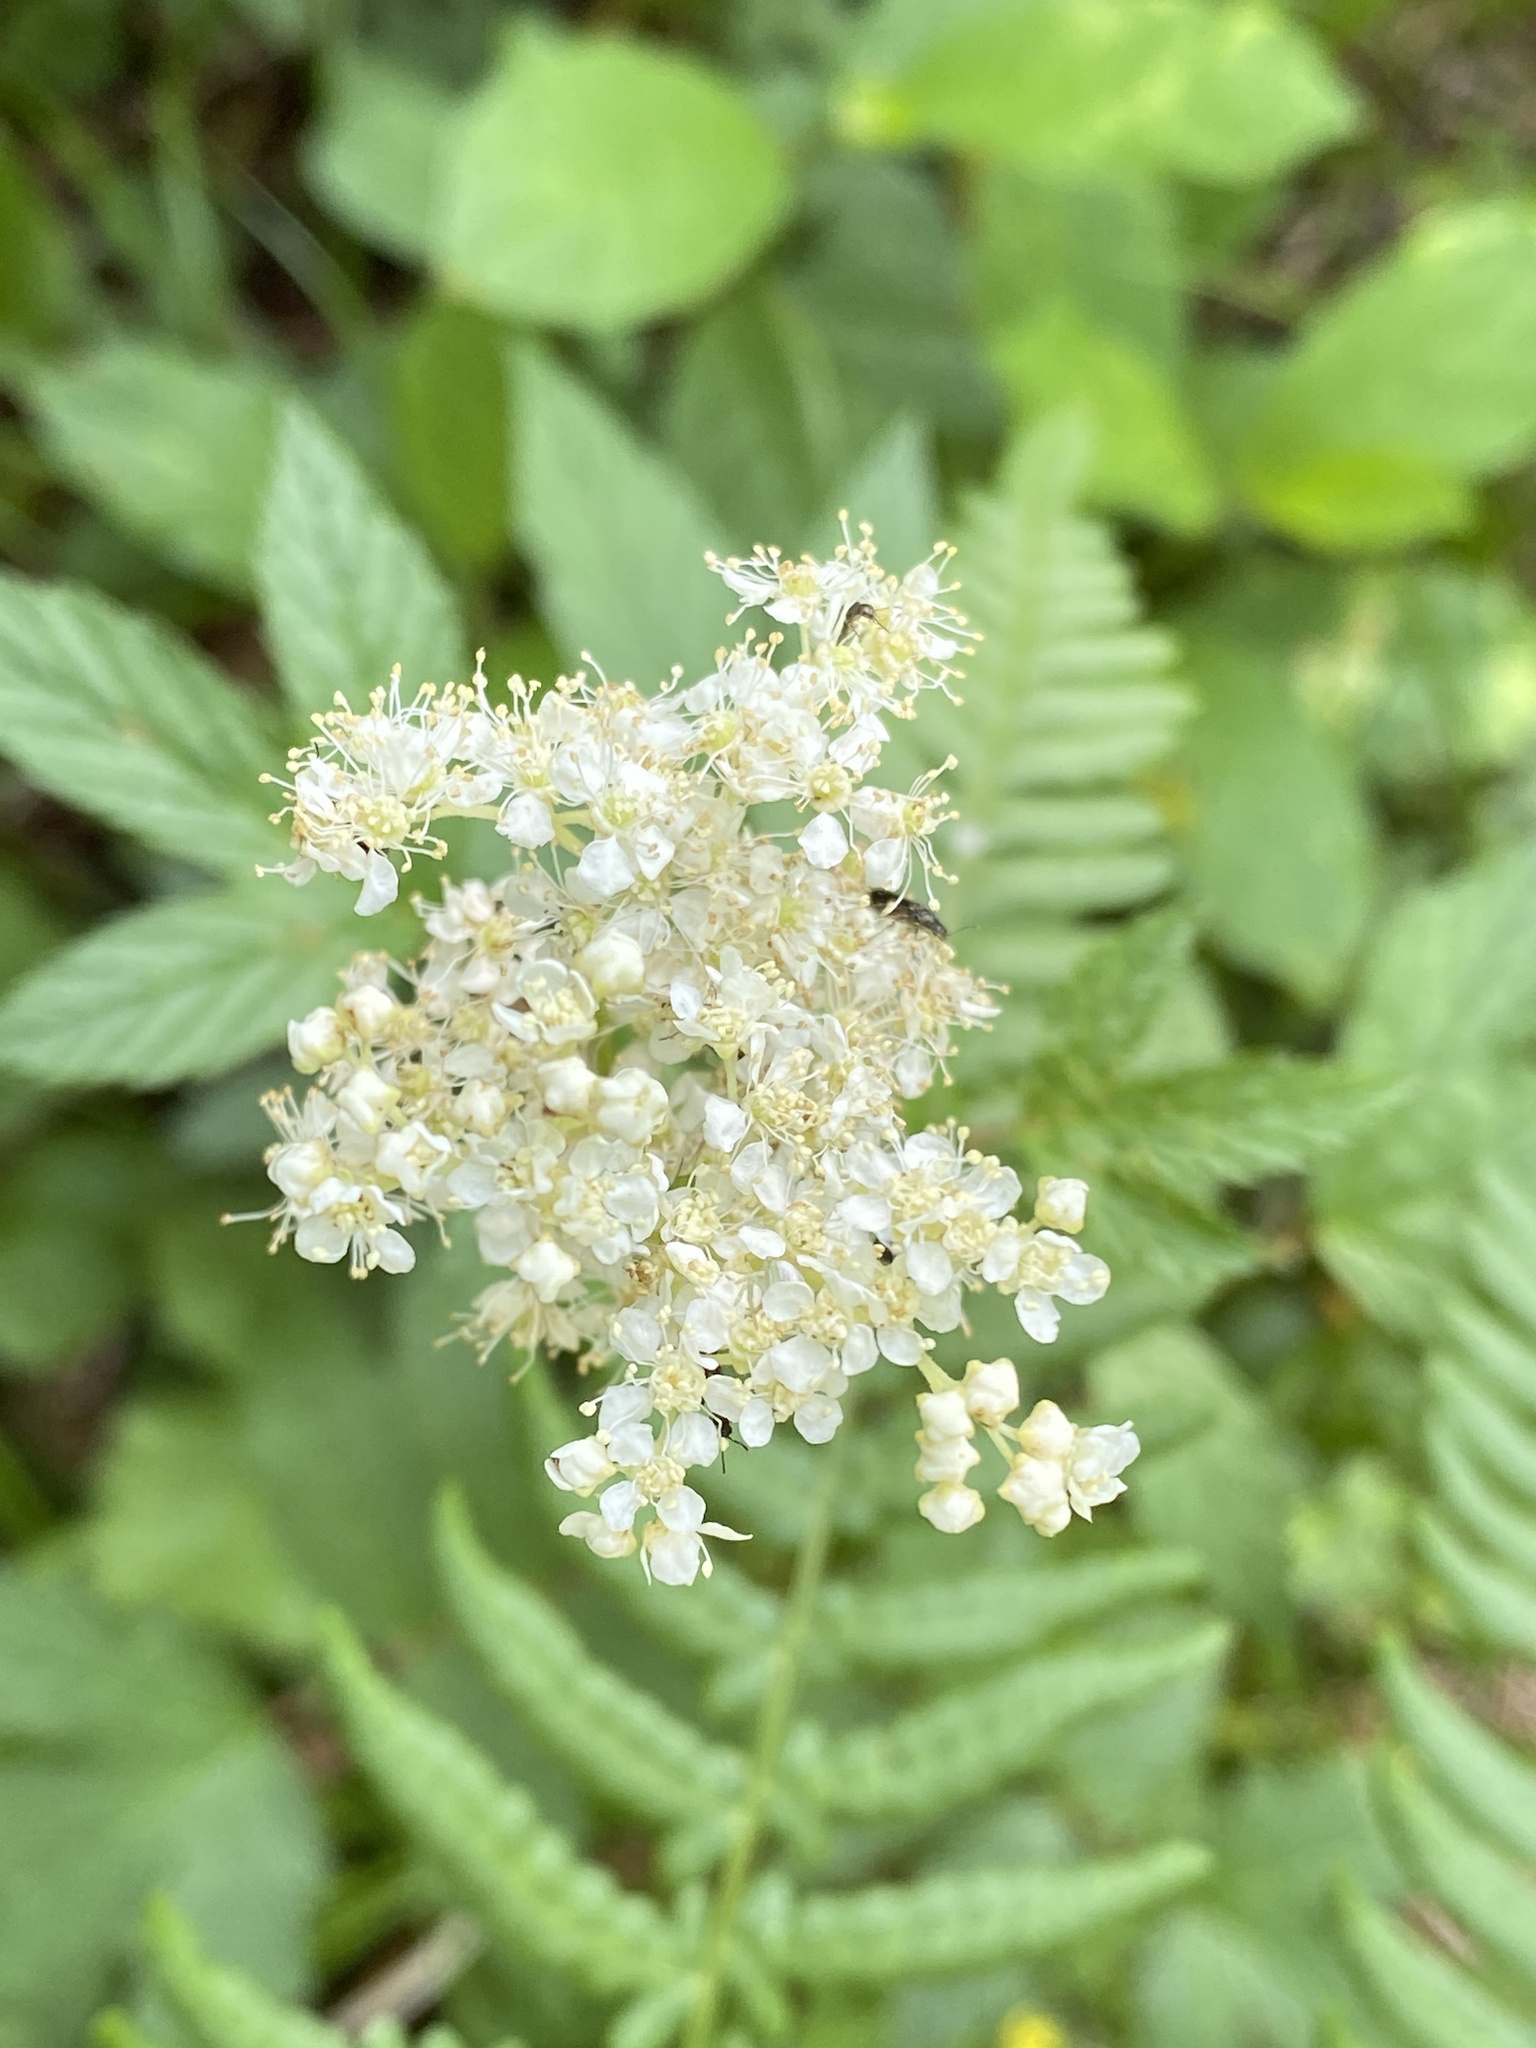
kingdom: Plantae
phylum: Tracheophyta
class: Magnoliopsida
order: Rosales
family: Rosaceae
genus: Filipendula
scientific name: Filipendula ulmaria
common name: Meadowsweet
